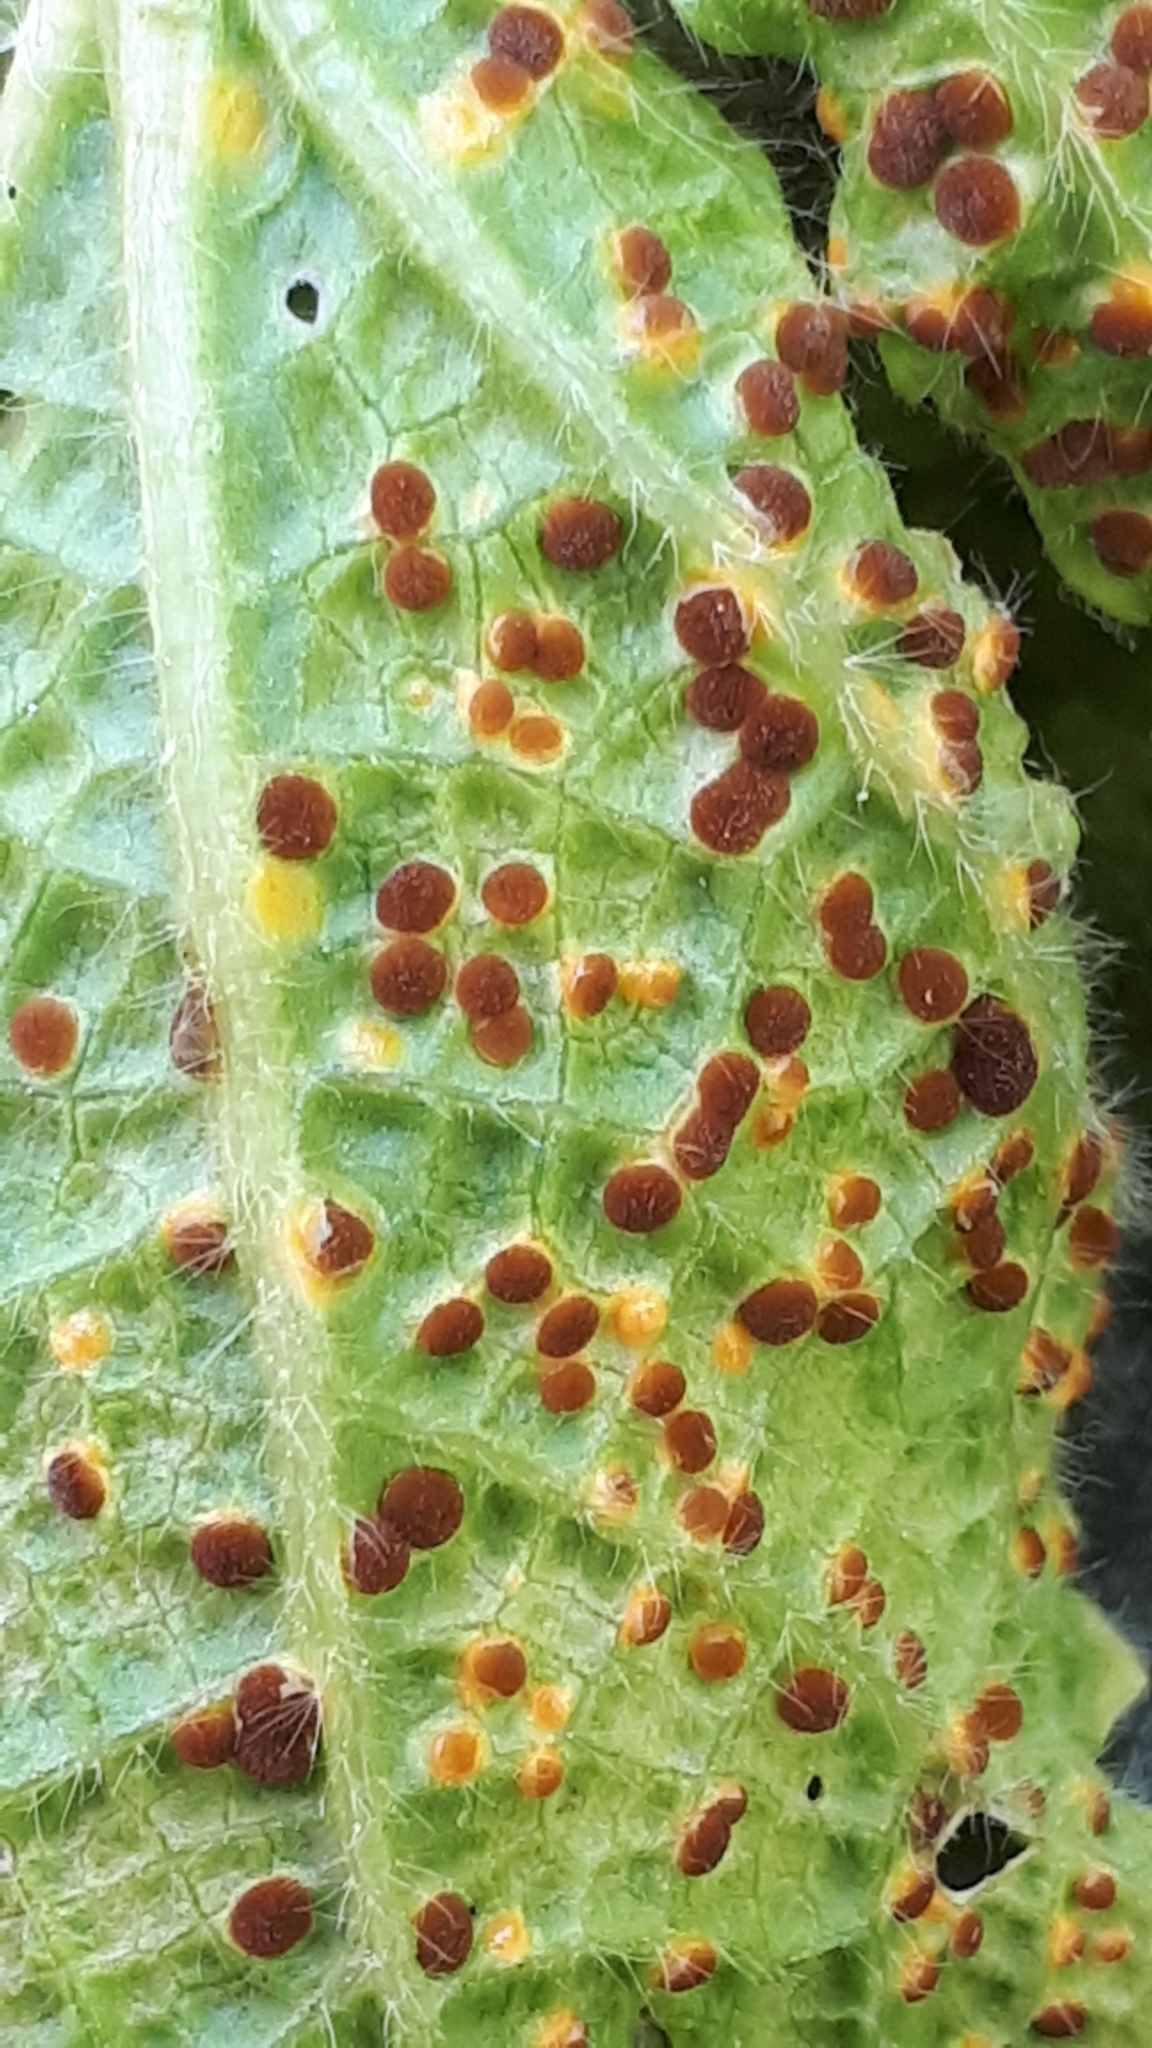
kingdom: Fungi
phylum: Basidiomycota
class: Pucciniomycetes
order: Pucciniales
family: Pucciniaceae
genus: Puccinia
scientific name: Puccinia malvacearum
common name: Hollyhock rust
